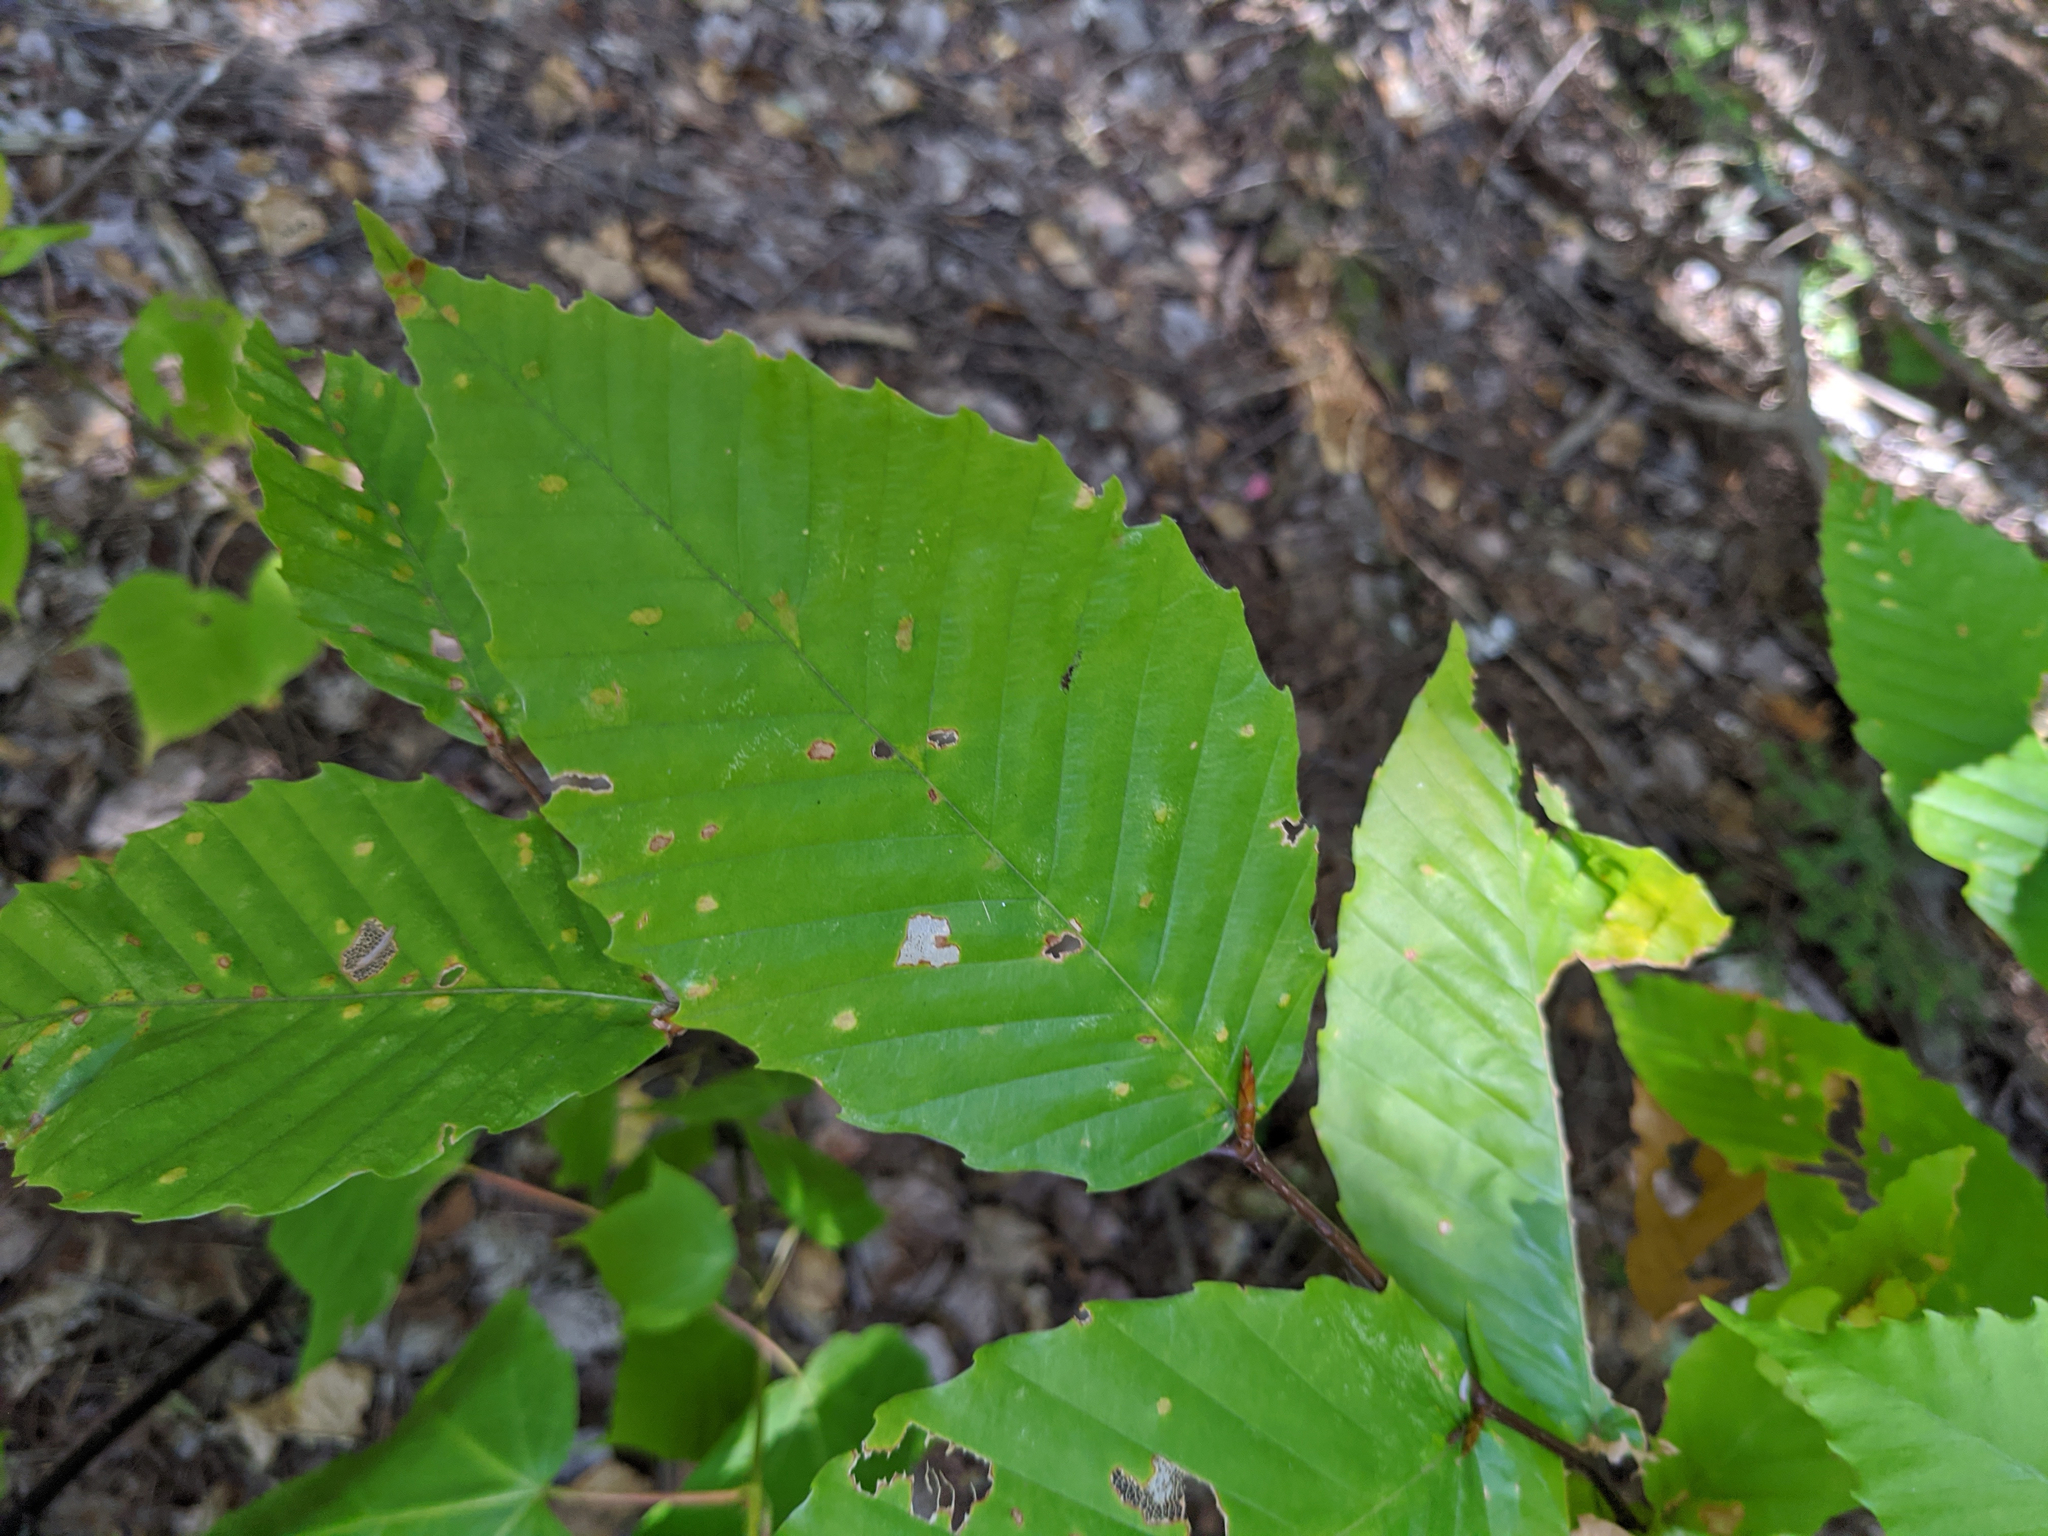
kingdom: Plantae
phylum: Tracheophyta
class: Magnoliopsida
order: Fagales
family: Fagaceae
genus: Fagus
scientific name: Fagus grandifolia
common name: American beech
